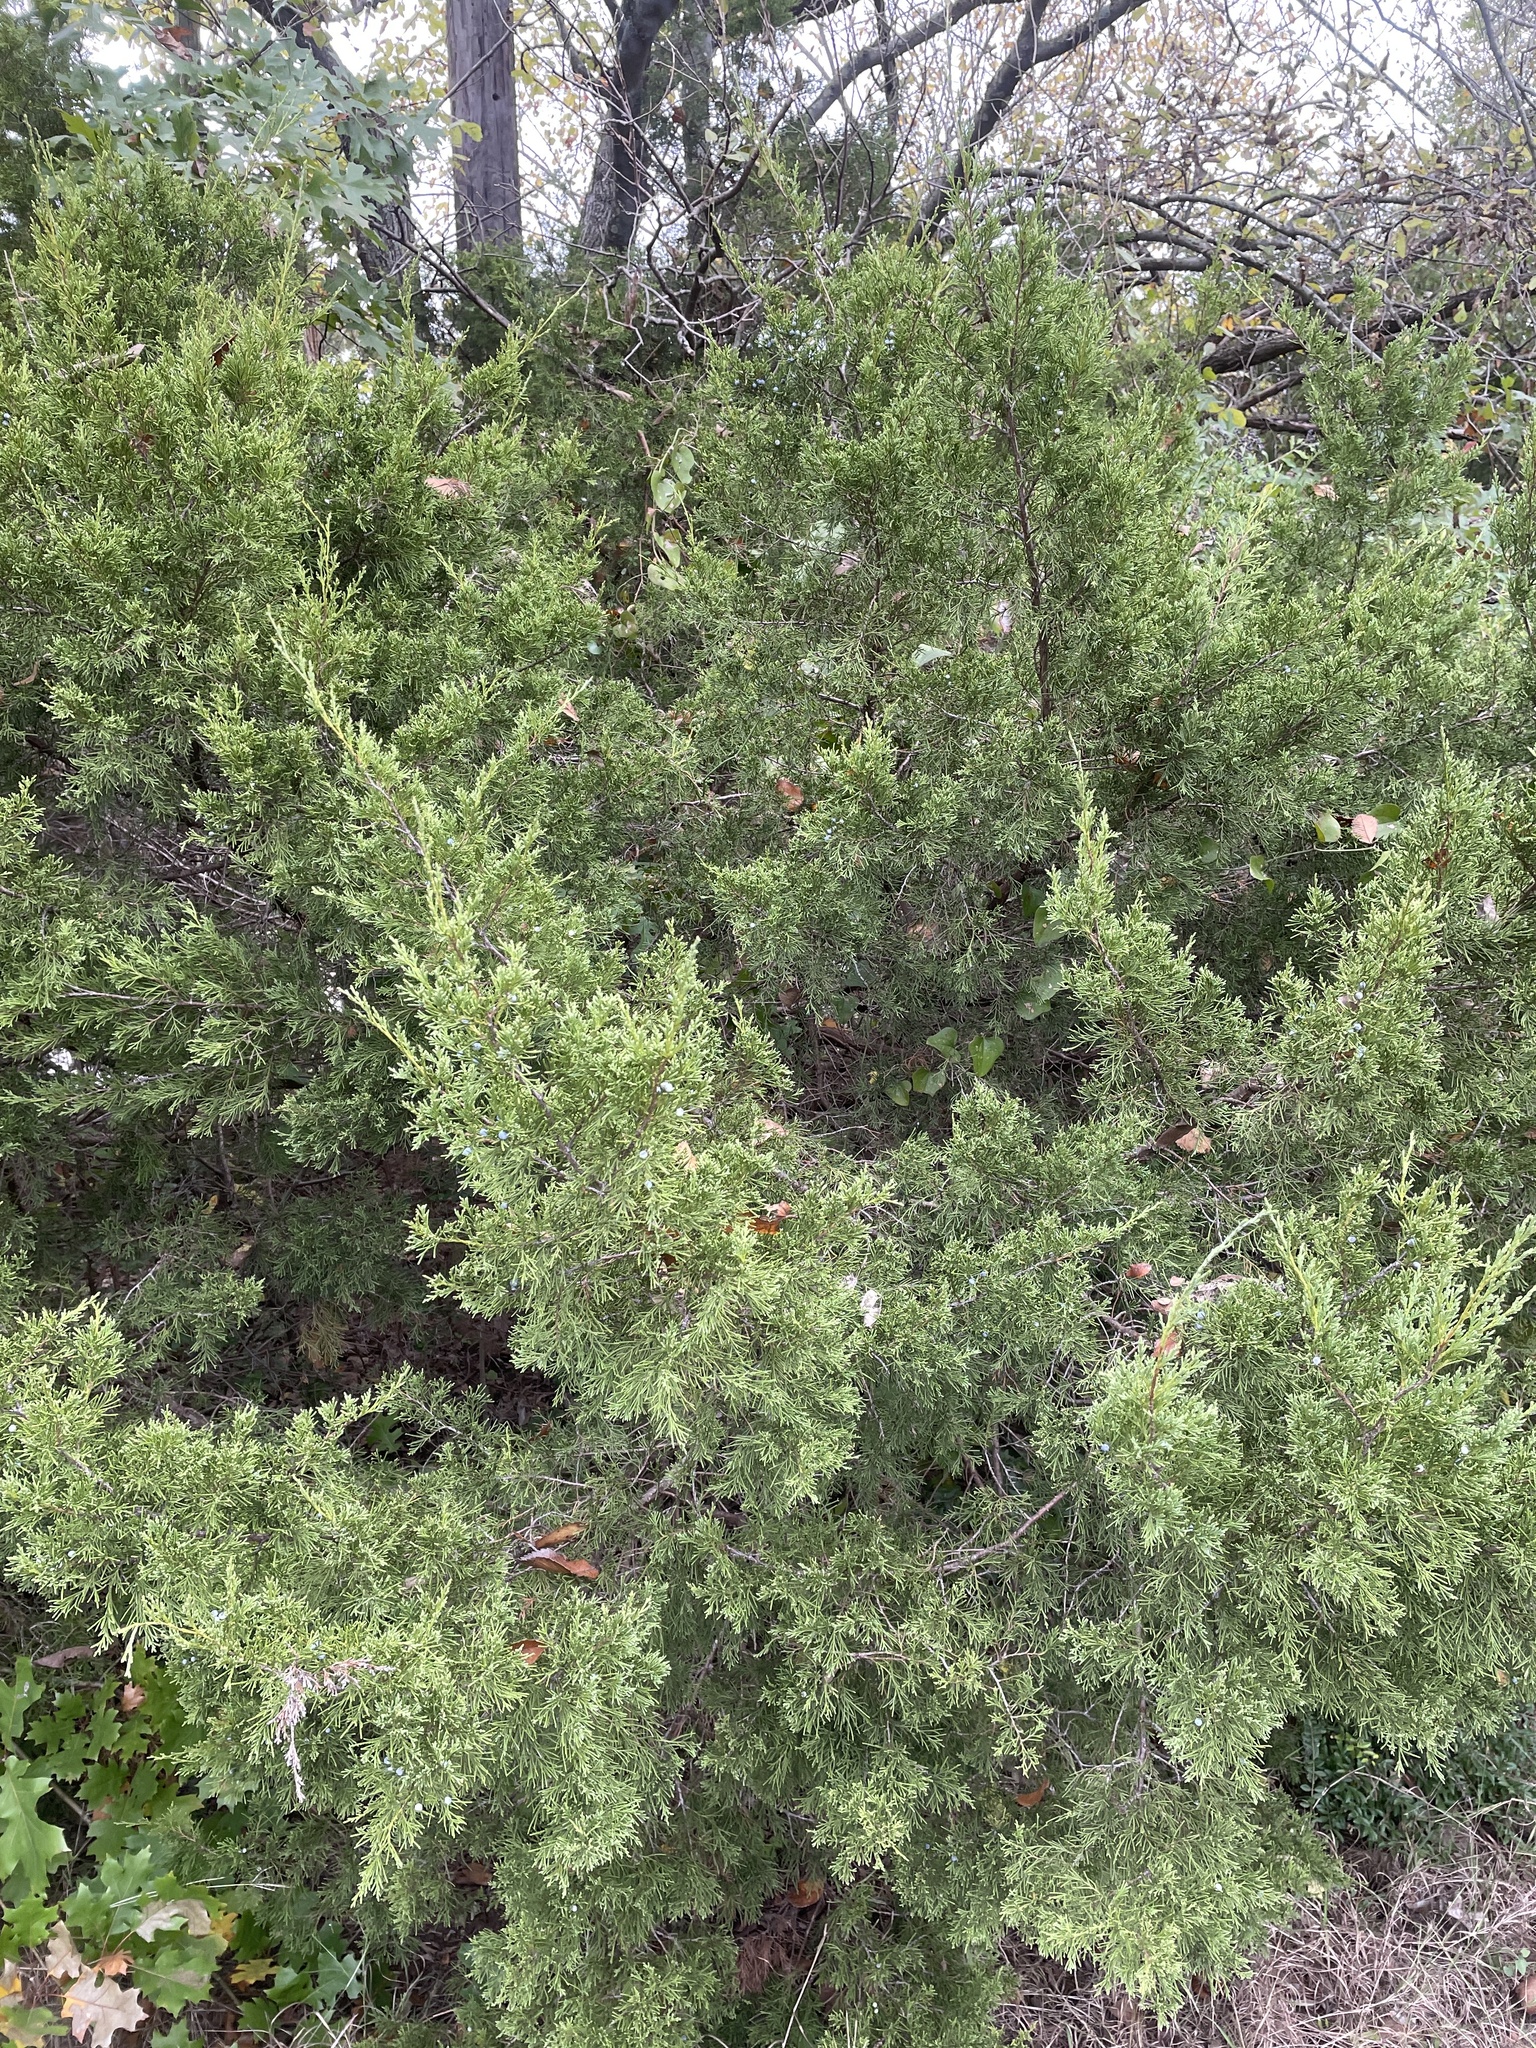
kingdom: Plantae
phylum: Tracheophyta
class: Pinopsida
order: Pinales
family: Cupressaceae
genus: Juniperus
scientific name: Juniperus virginiana
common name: Red juniper
